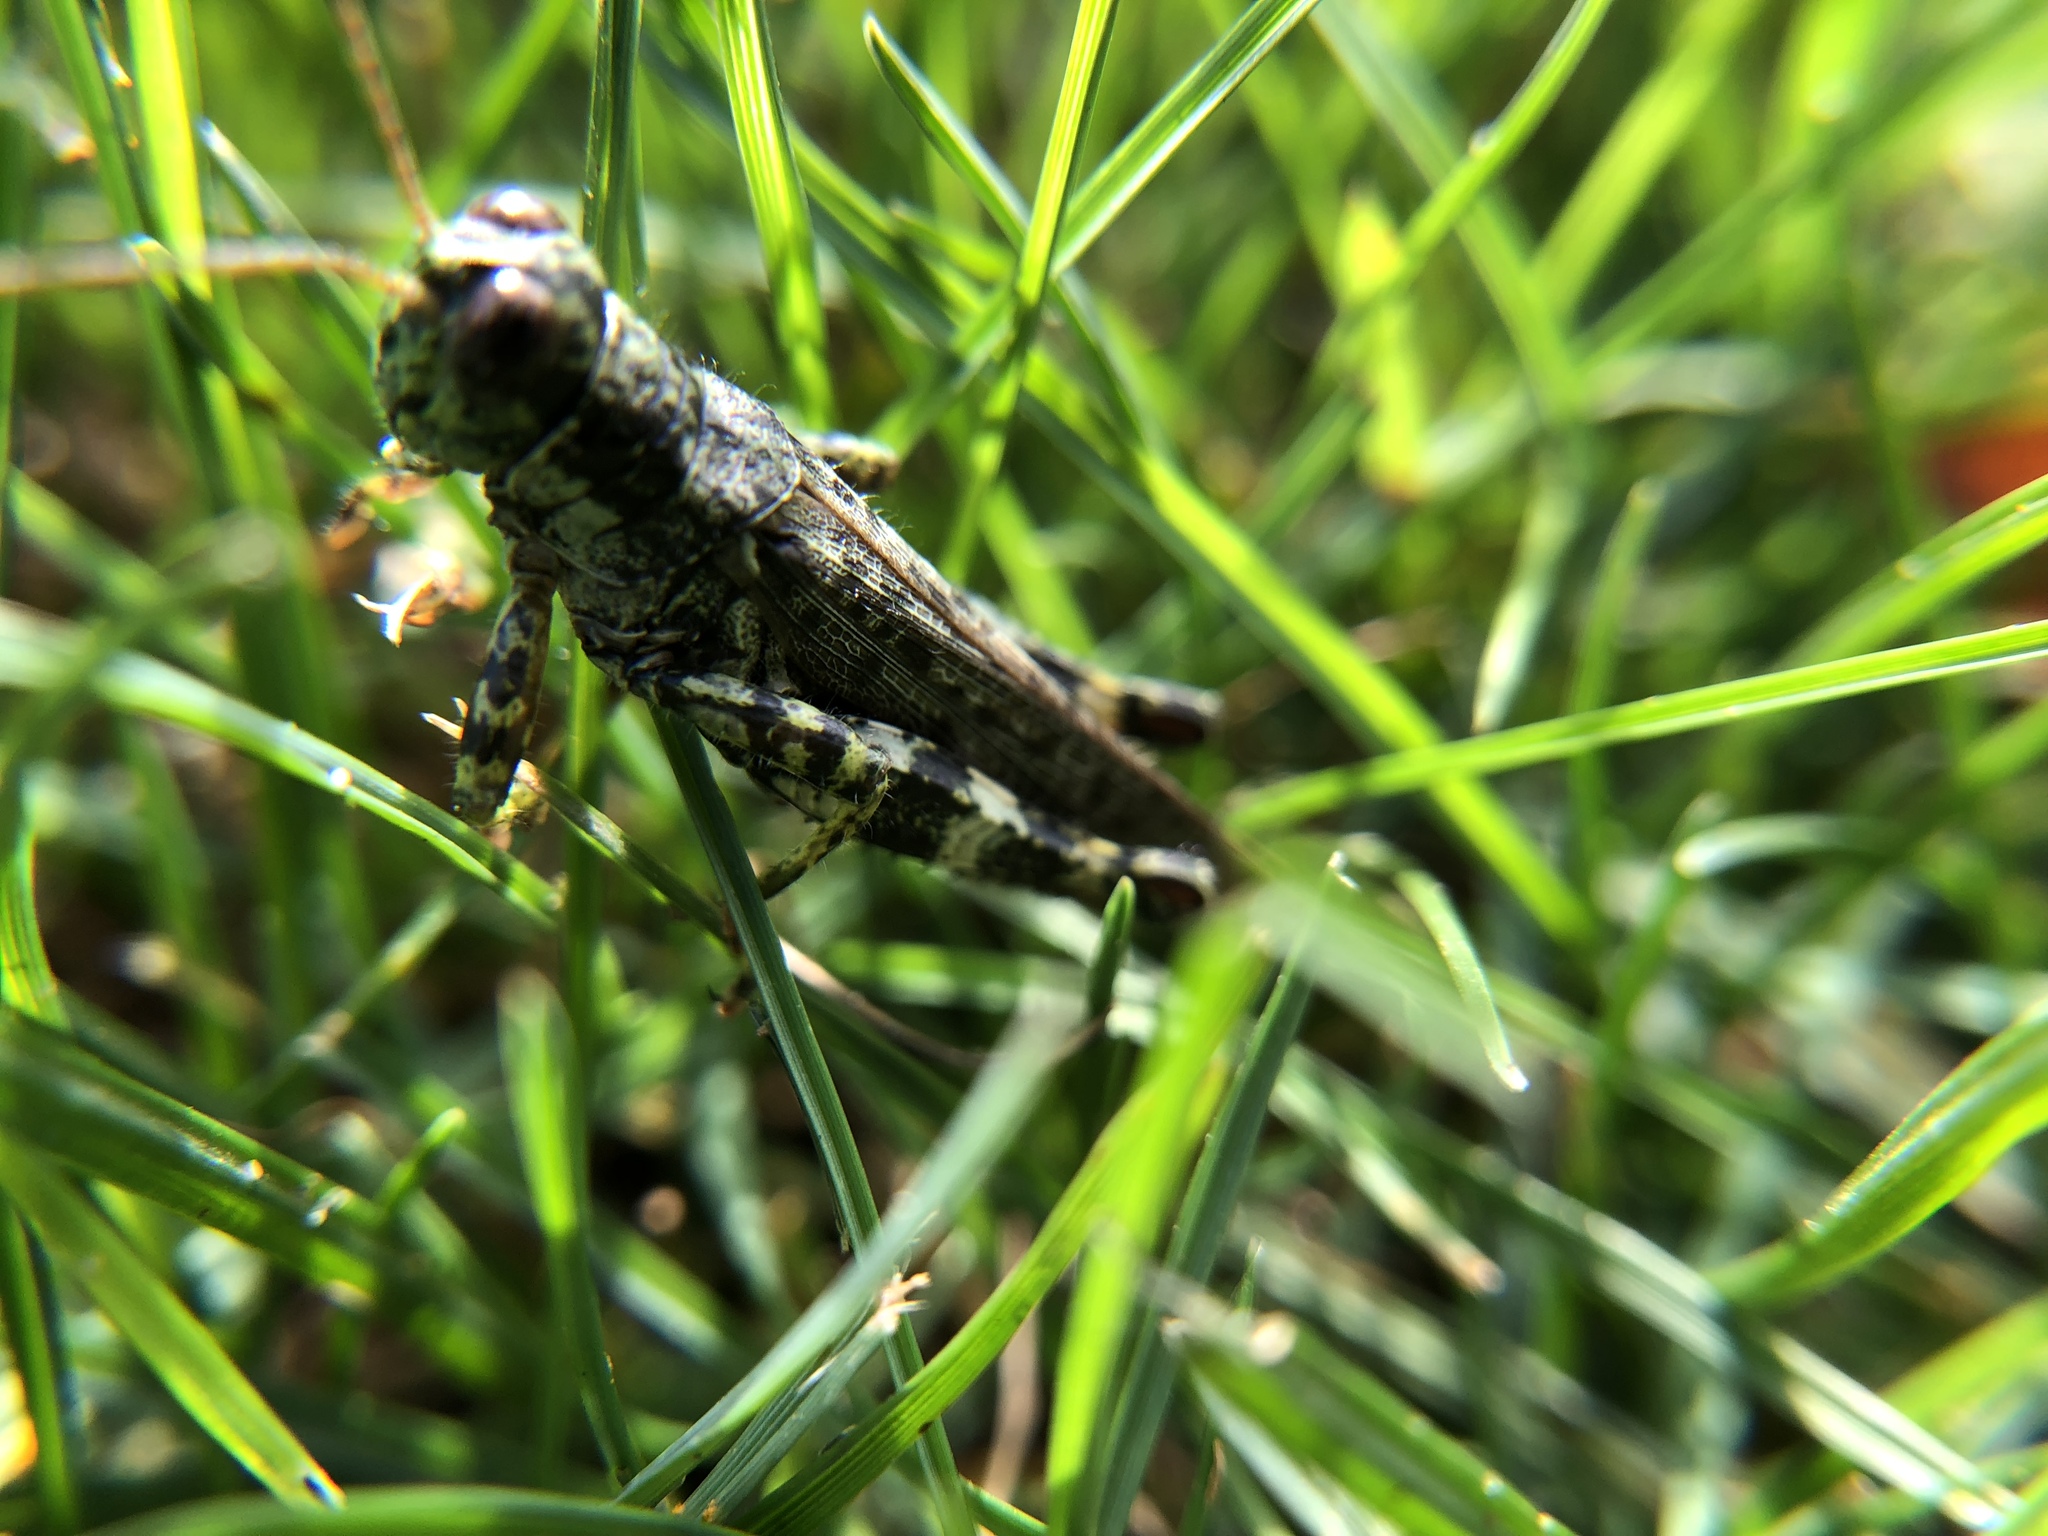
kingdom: Animalia
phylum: Arthropoda
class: Insecta
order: Orthoptera
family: Acrididae
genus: Melanoplus
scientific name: Melanoplus punctulatus
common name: Pine-tree spur-throat grasshopper
